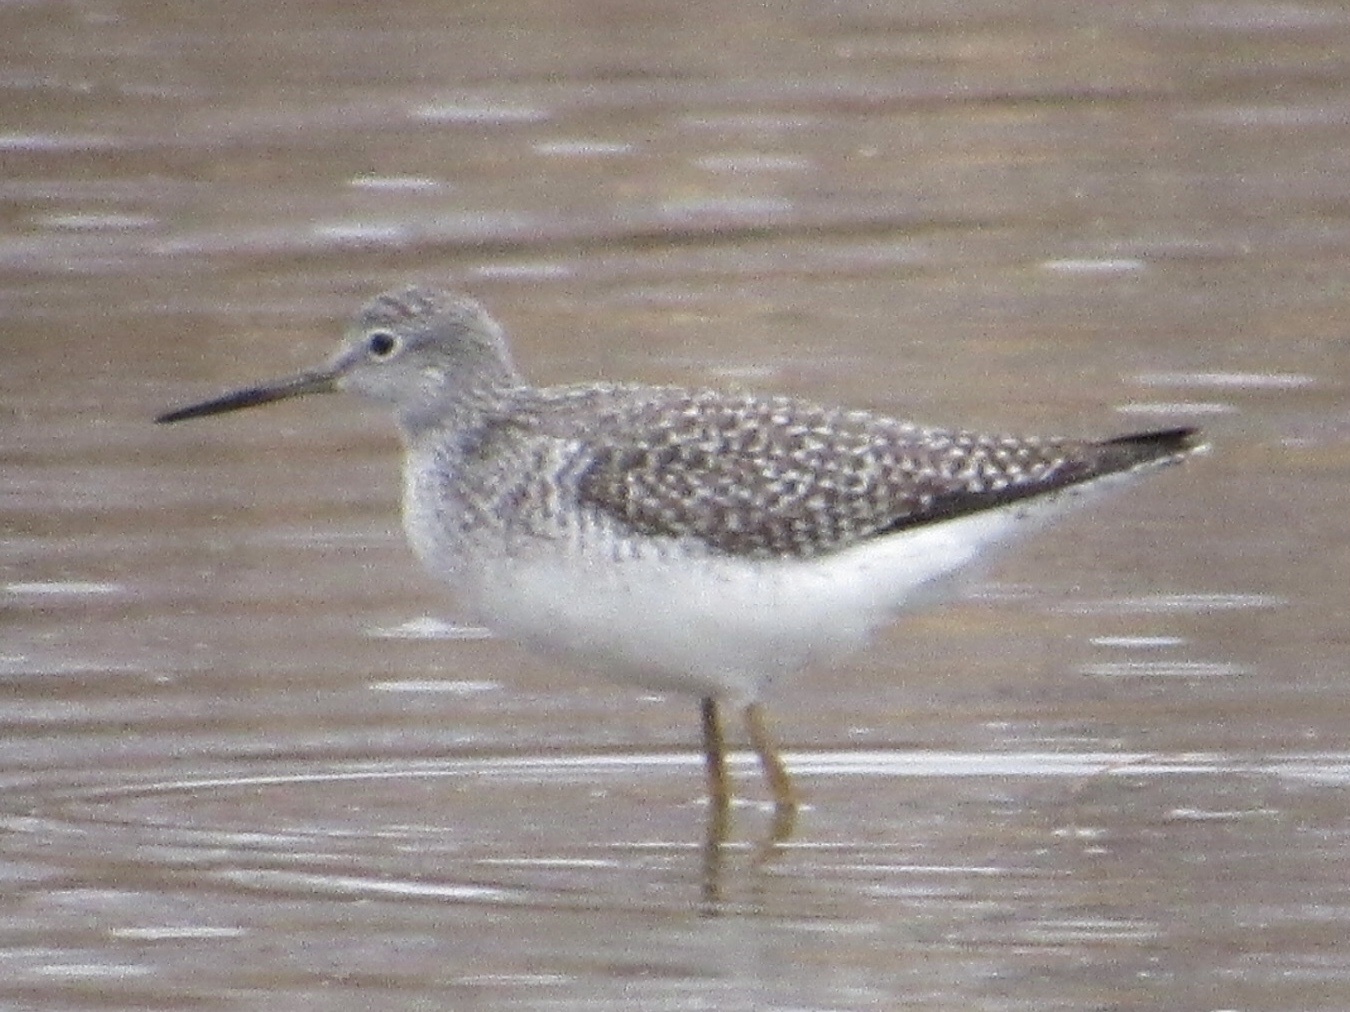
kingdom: Animalia
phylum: Chordata
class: Aves
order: Charadriiformes
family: Scolopacidae
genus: Tringa
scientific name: Tringa melanoleuca
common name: Greater yellowlegs
